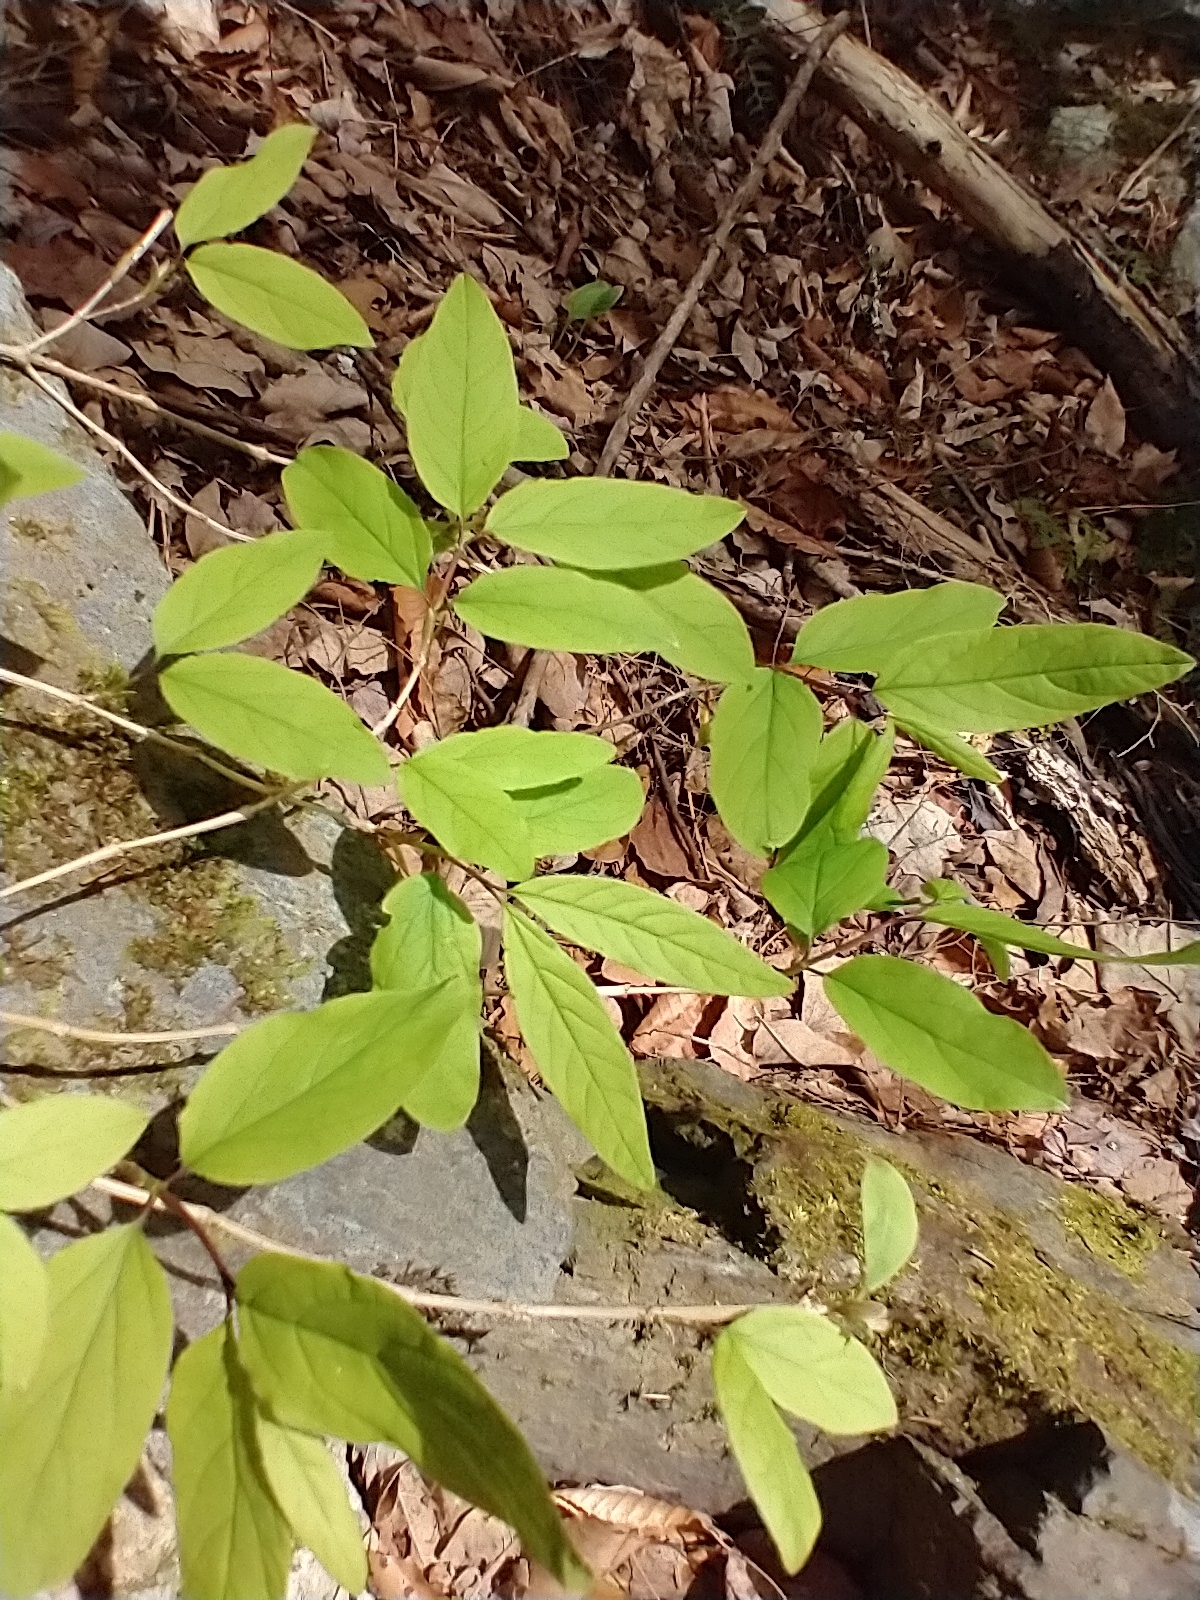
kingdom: Plantae
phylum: Tracheophyta
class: Magnoliopsida
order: Dipsacales
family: Caprifoliaceae
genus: Lonicera
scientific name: Lonicera canadensis
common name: American fly-honeysuckle
